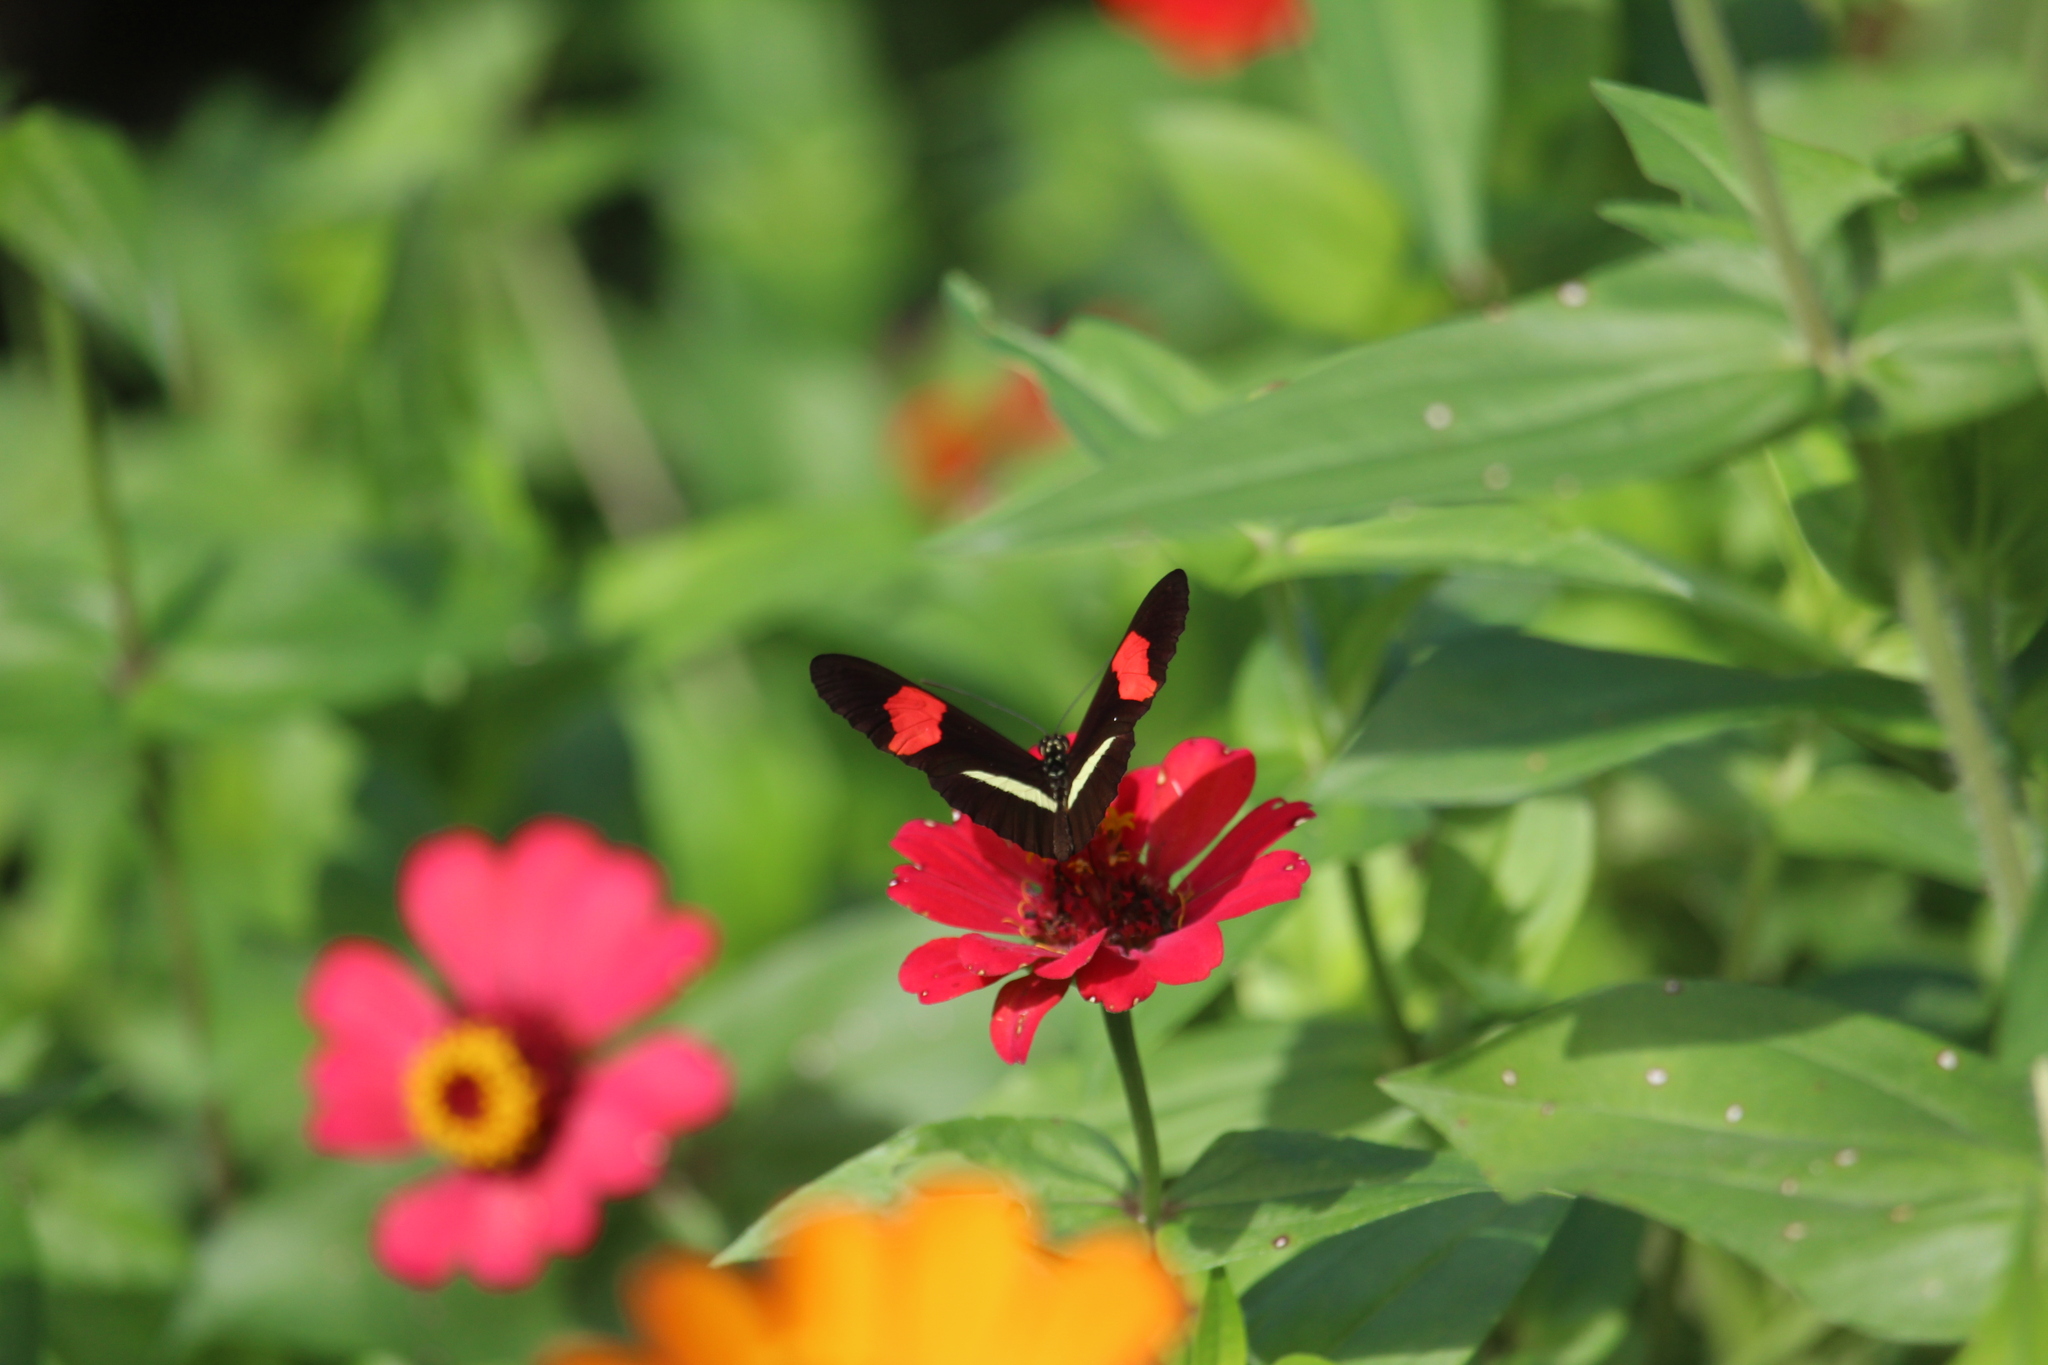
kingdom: Animalia
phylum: Arthropoda
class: Insecta
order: Lepidoptera
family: Nymphalidae
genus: Tirumala
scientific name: Tirumala petiverana
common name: Blue monarch
